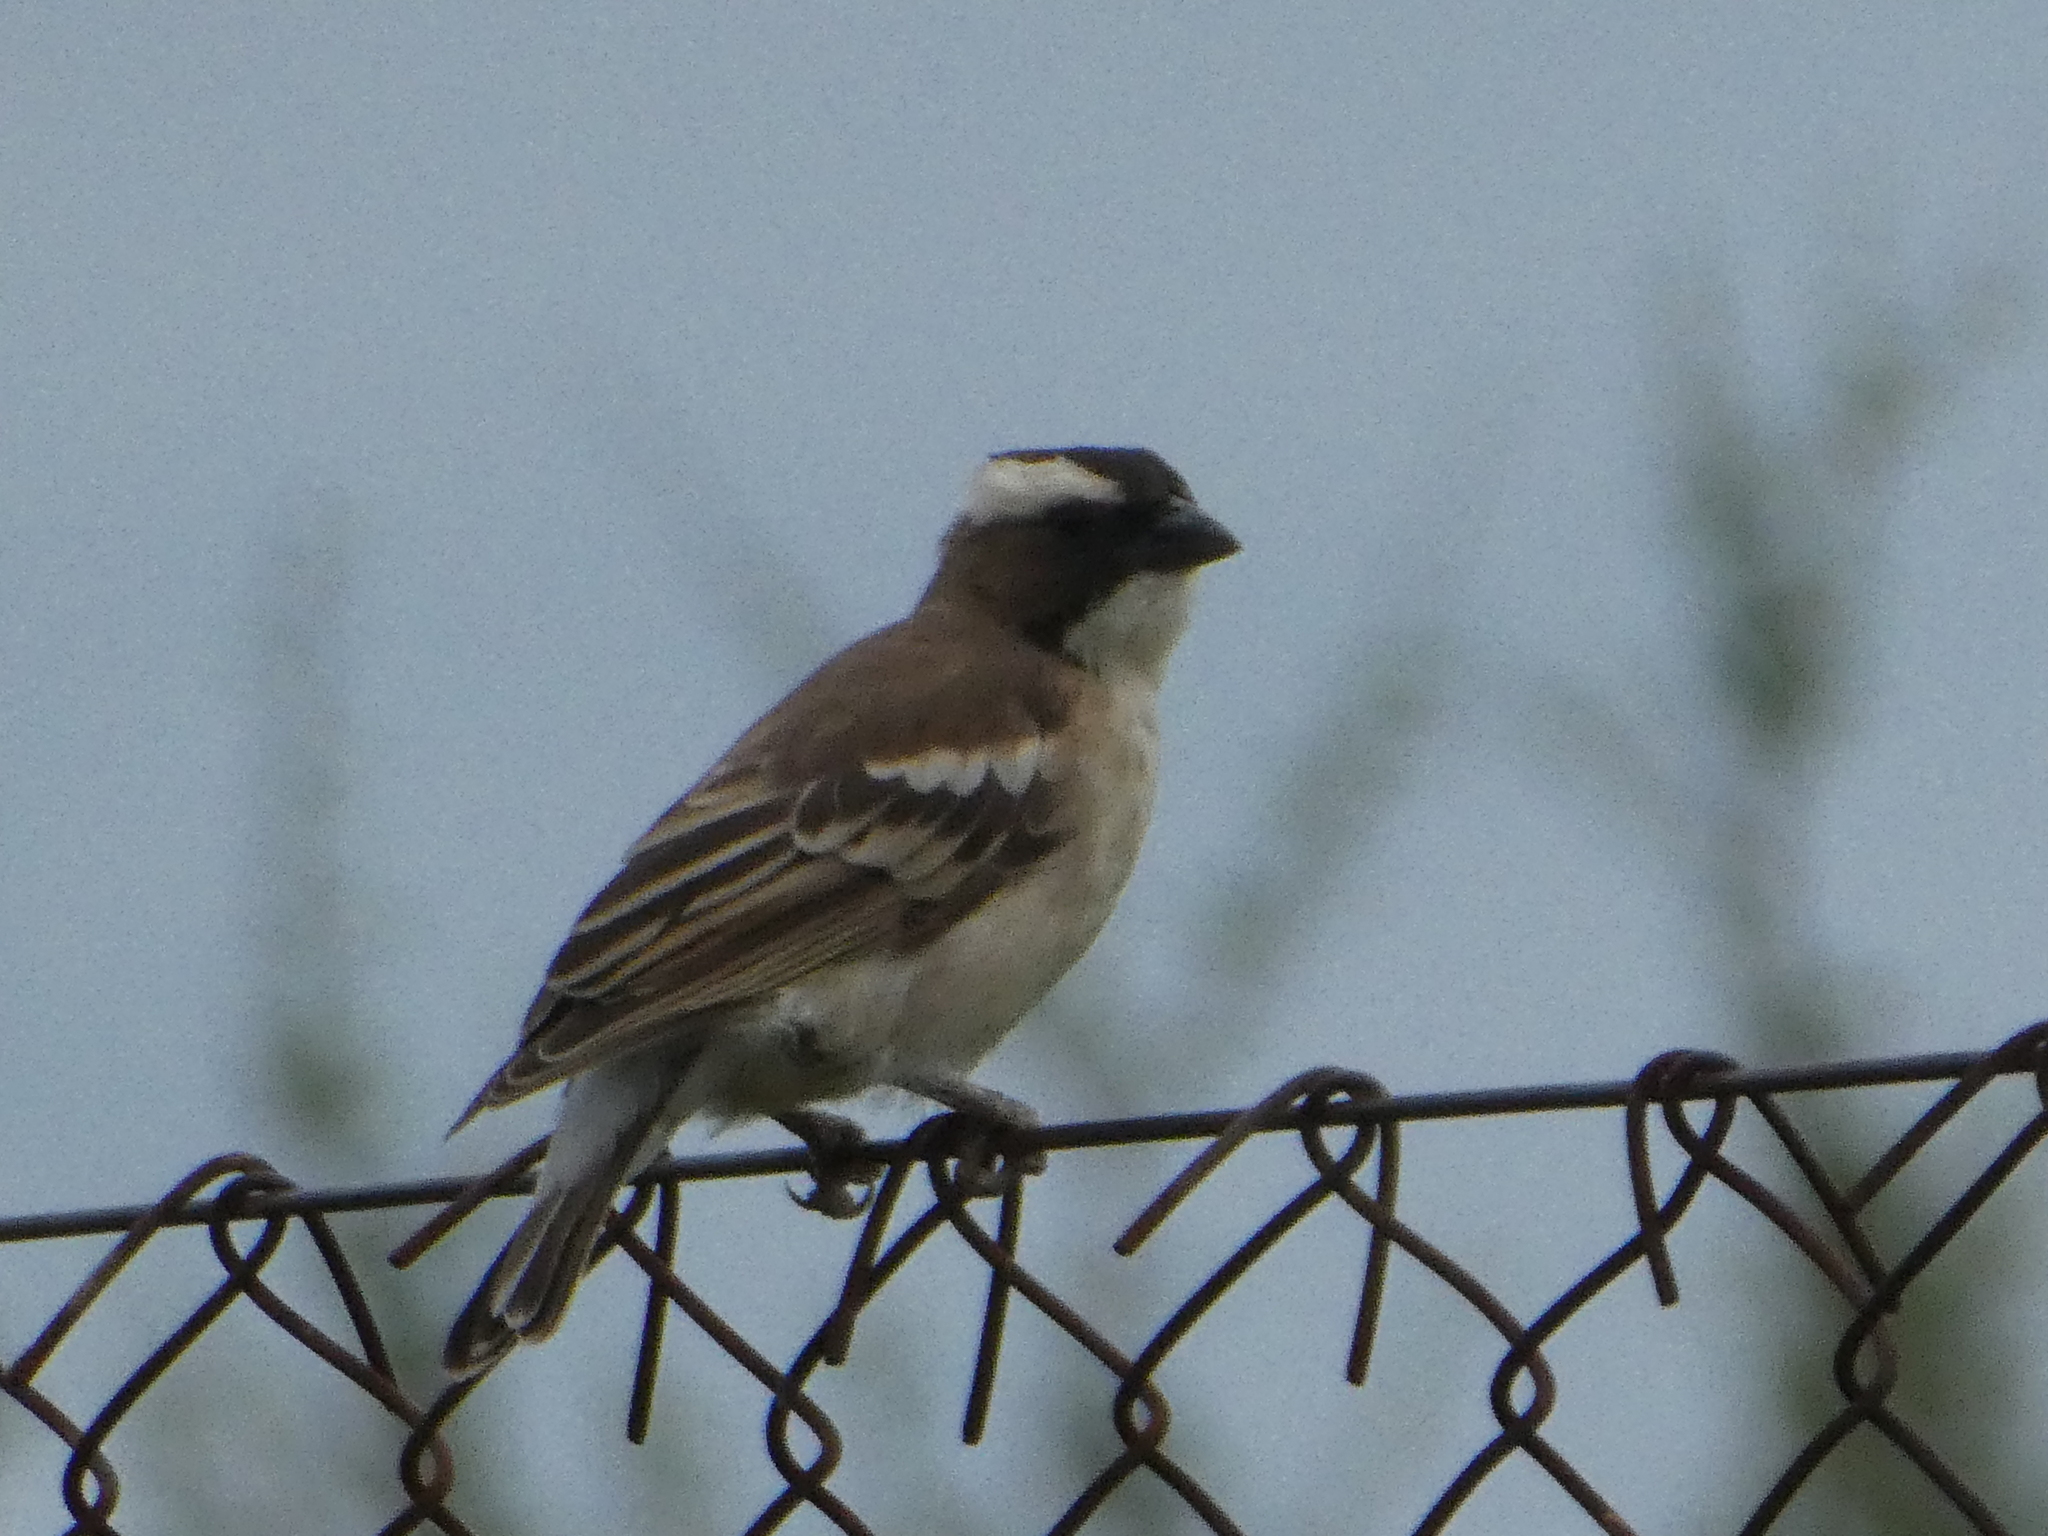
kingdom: Animalia
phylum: Chordata
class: Aves
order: Passeriformes
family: Passeridae
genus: Plocepasser
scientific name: Plocepasser mahali
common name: White-browed sparrow-weaver
